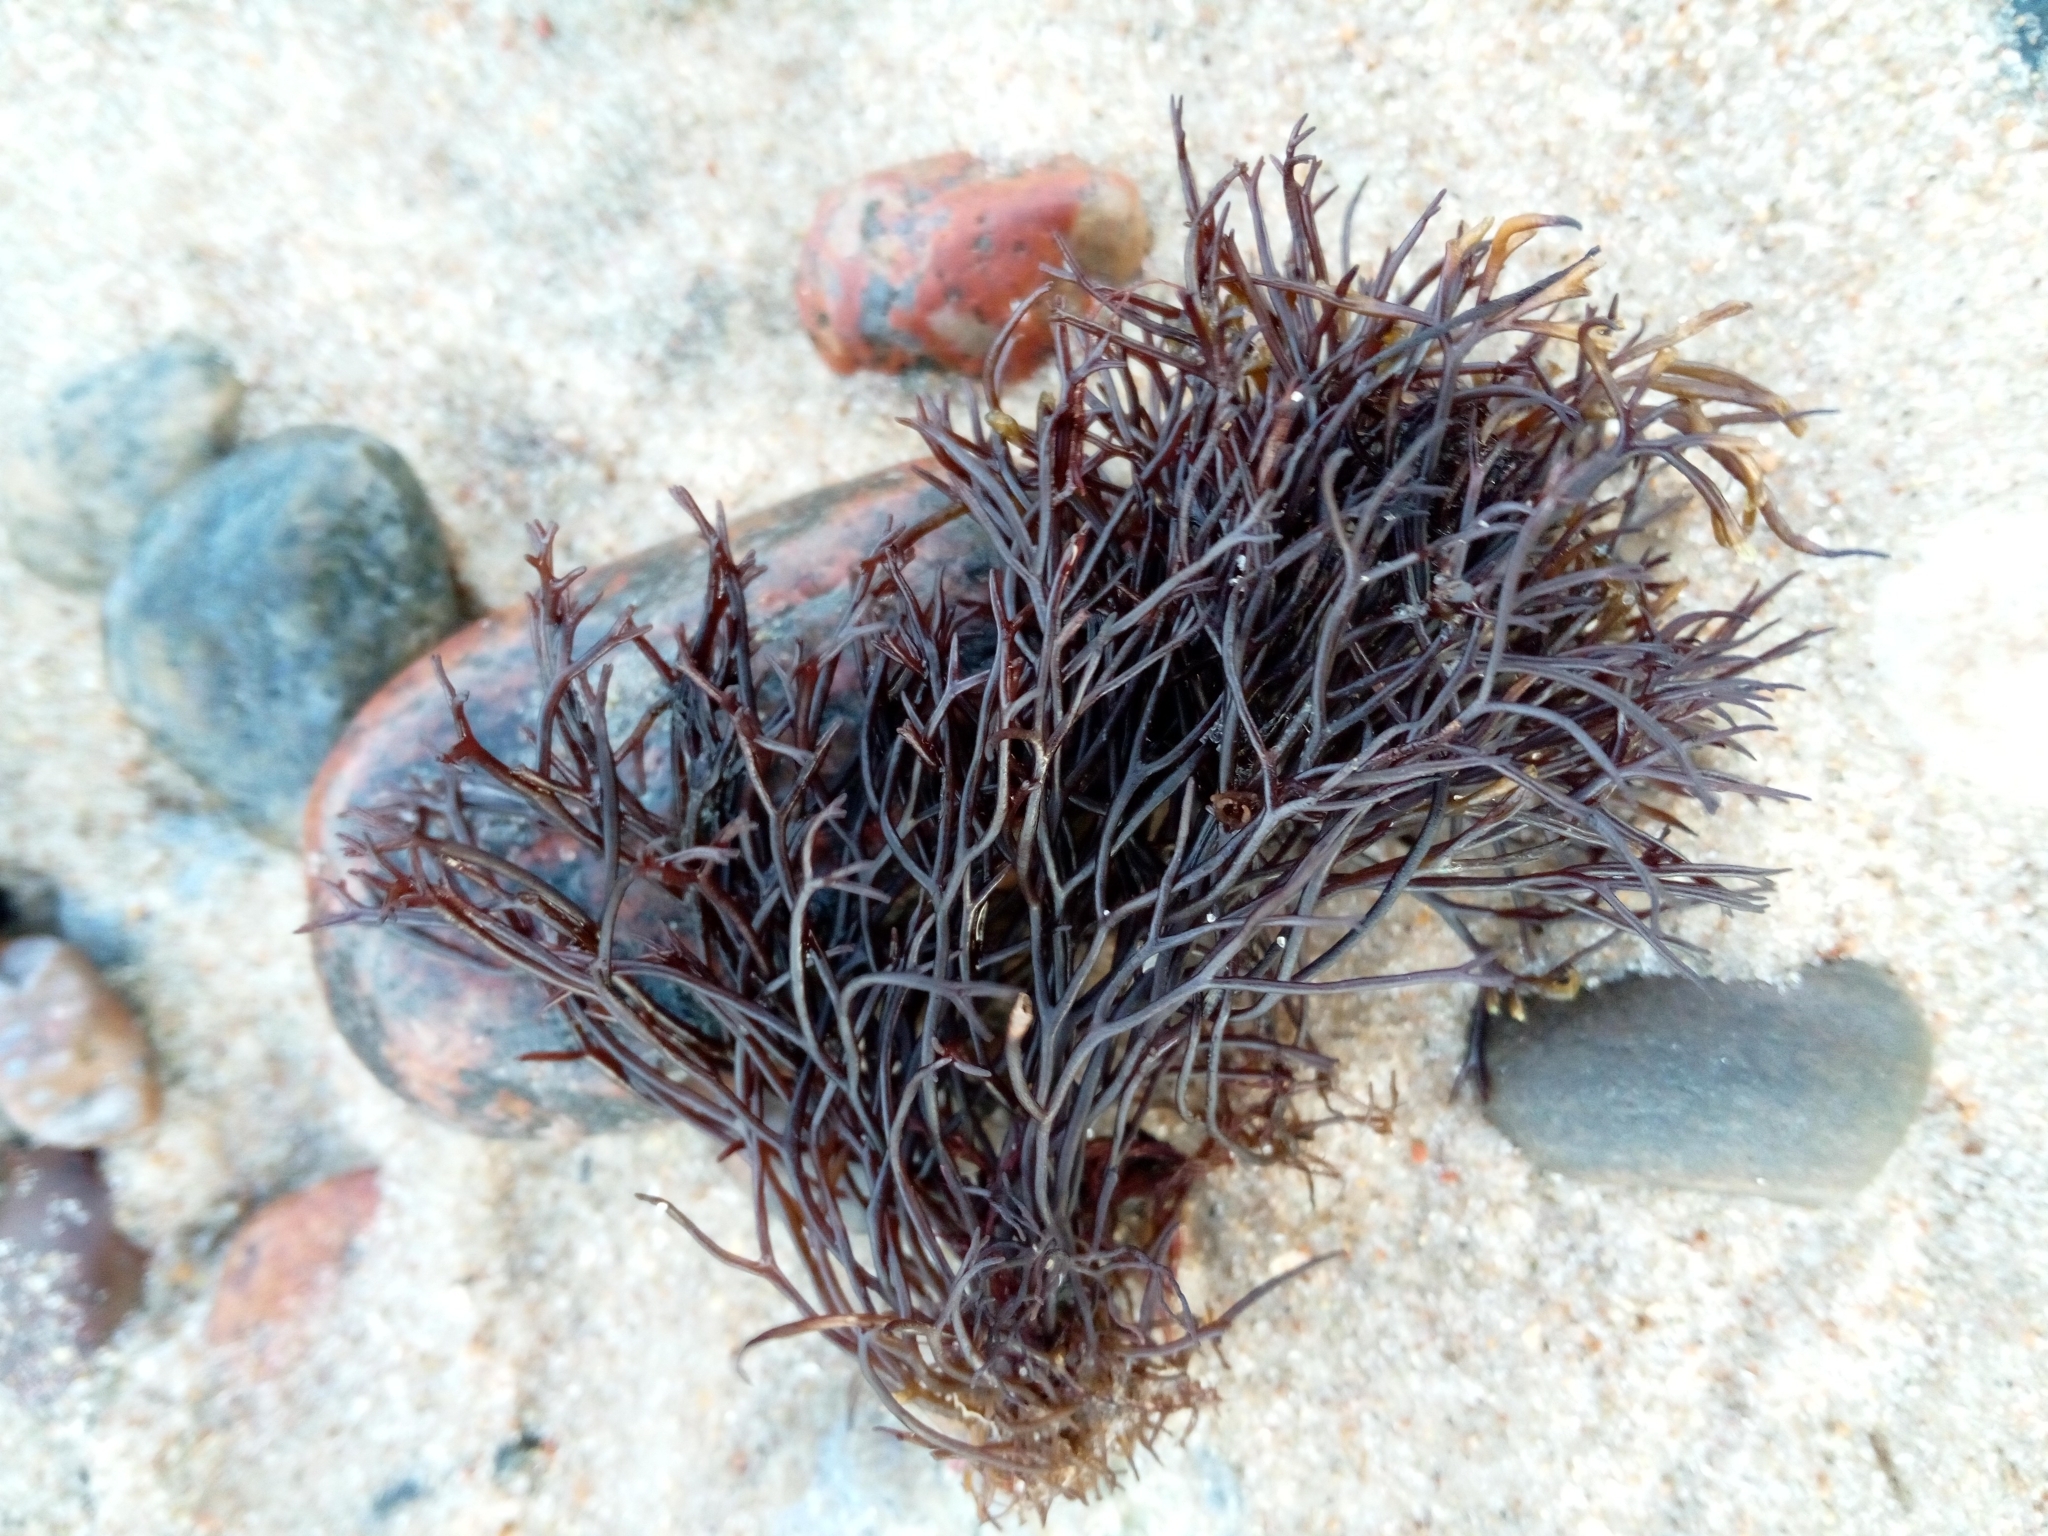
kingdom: Plantae
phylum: Rhodophyta
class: Florideophyceae
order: Gigartinales
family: Furcellariaceae
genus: Furcellaria
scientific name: Furcellaria lumbricalis
